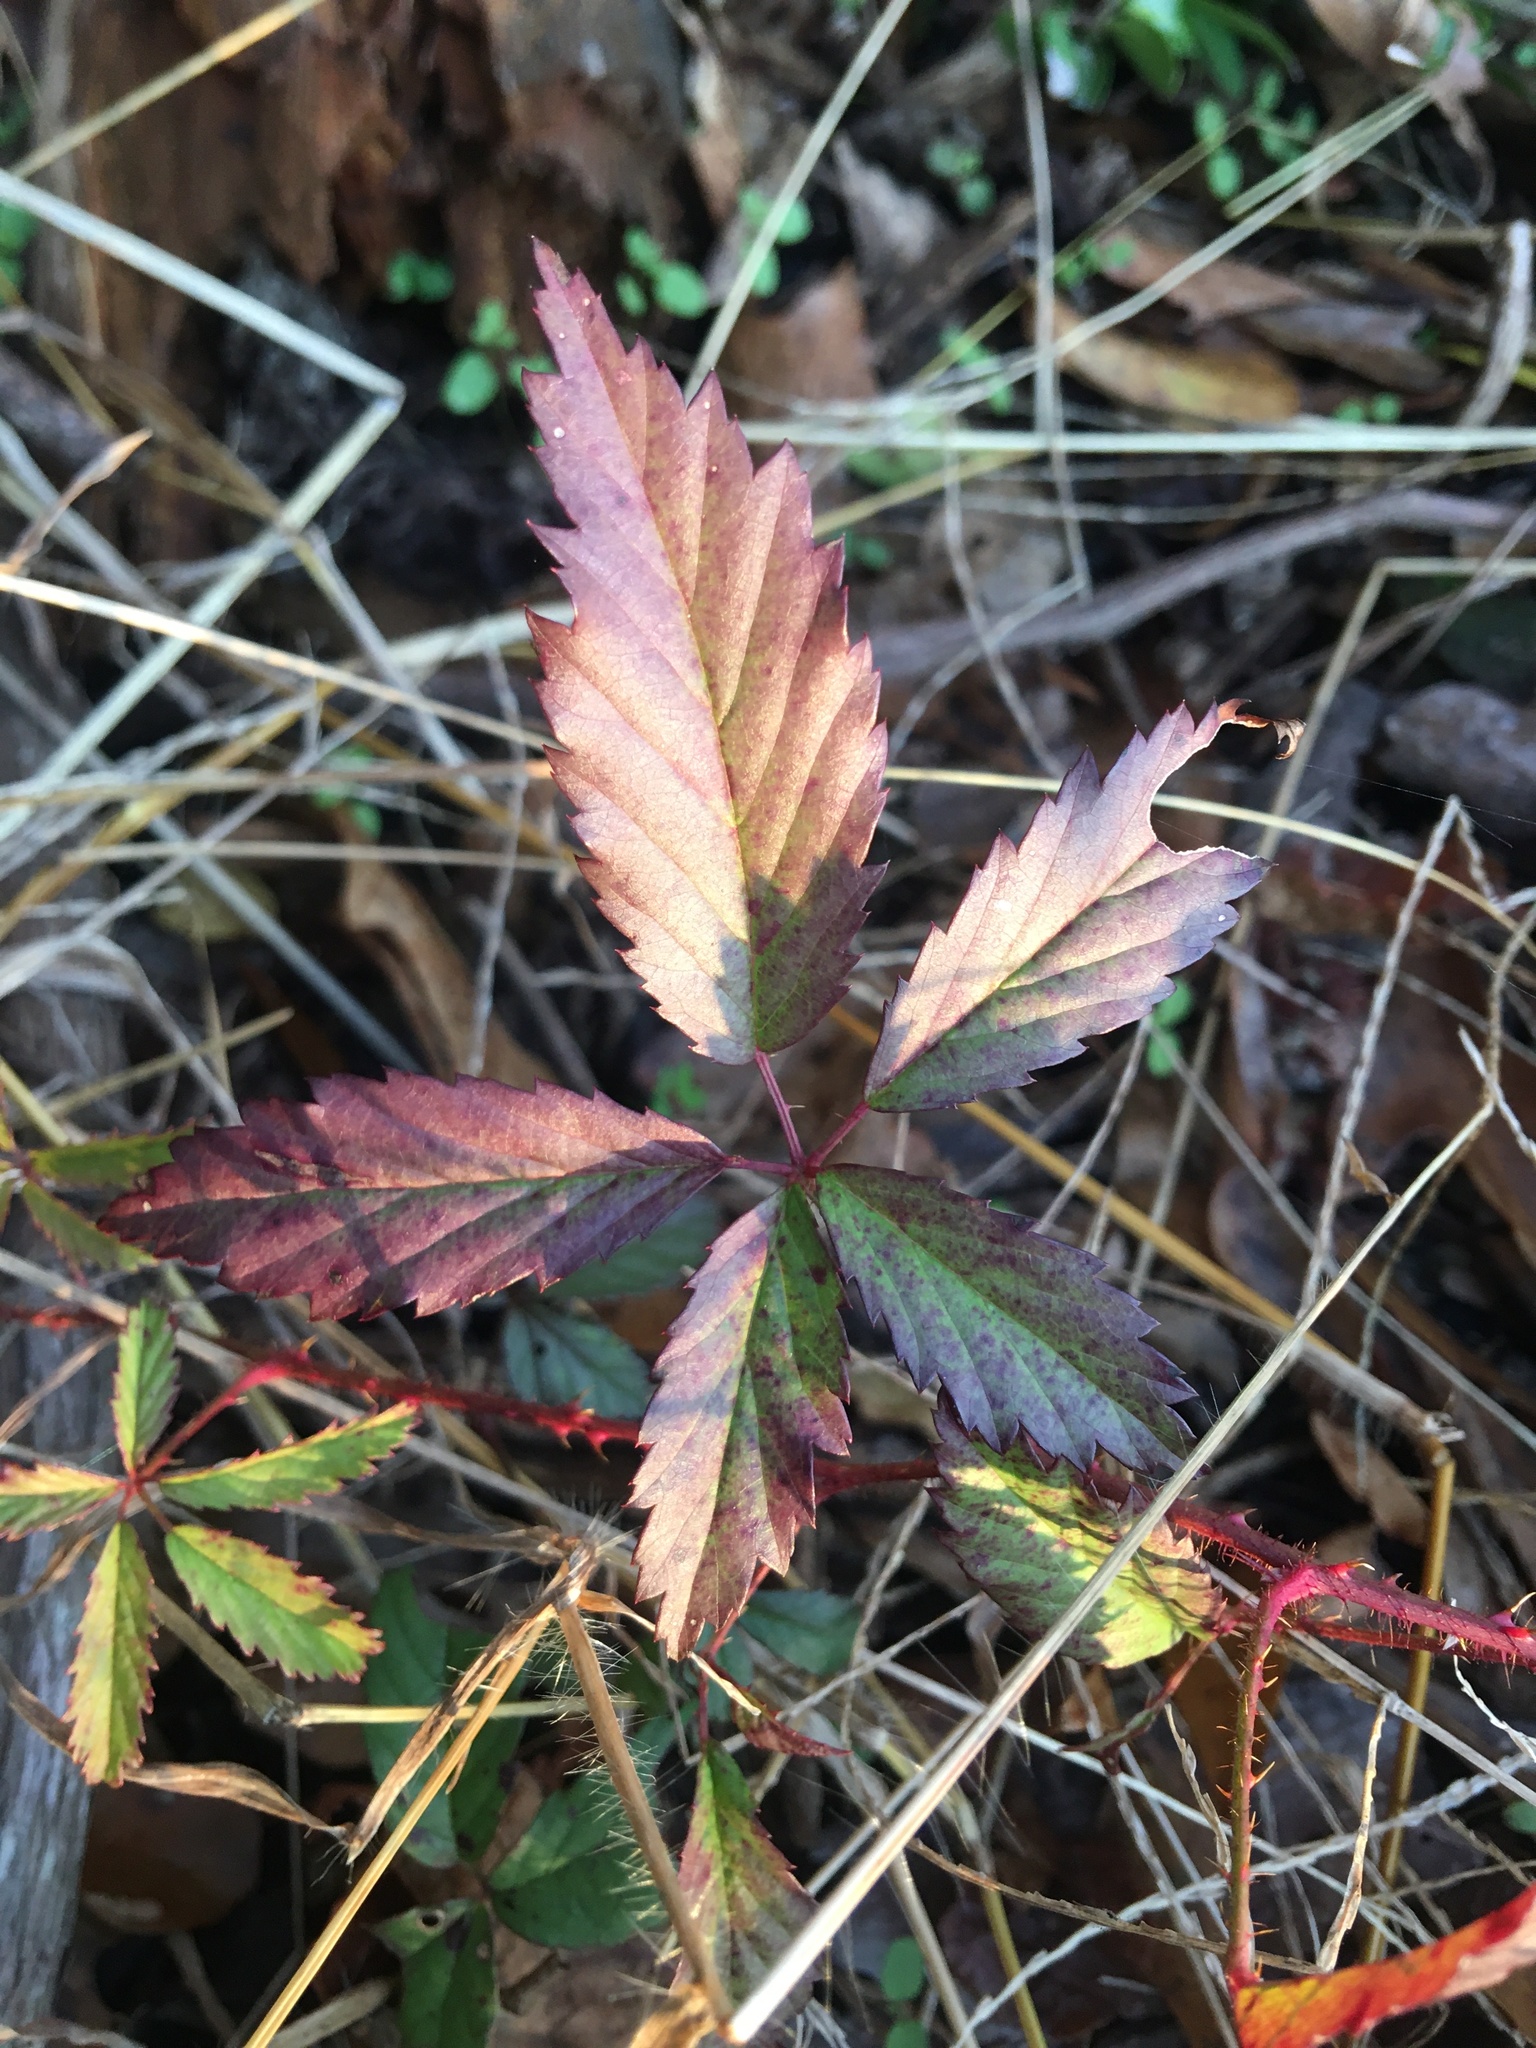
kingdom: Plantae
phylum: Tracheophyta
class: Magnoliopsida
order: Rosales
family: Rosaceae
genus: Rubus
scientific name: Rubus trivialis
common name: Southern dewberry
